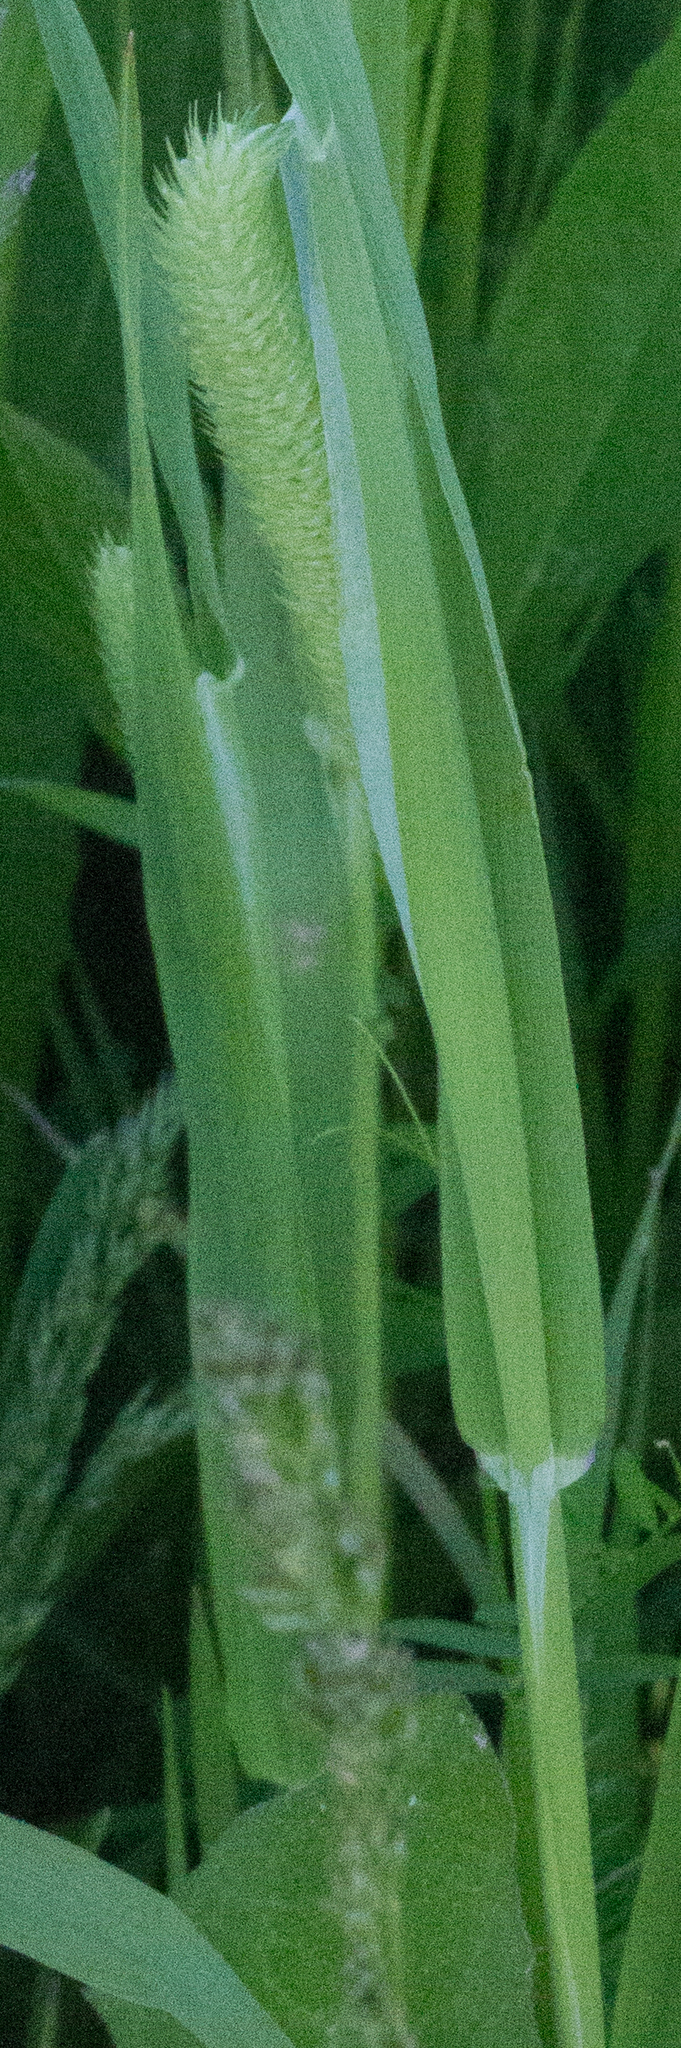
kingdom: Plantae
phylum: Tracheophyta
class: Liliopsida
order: Poales
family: Poaceae
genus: Phleum
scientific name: Phleum pratense
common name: Timothy grass
